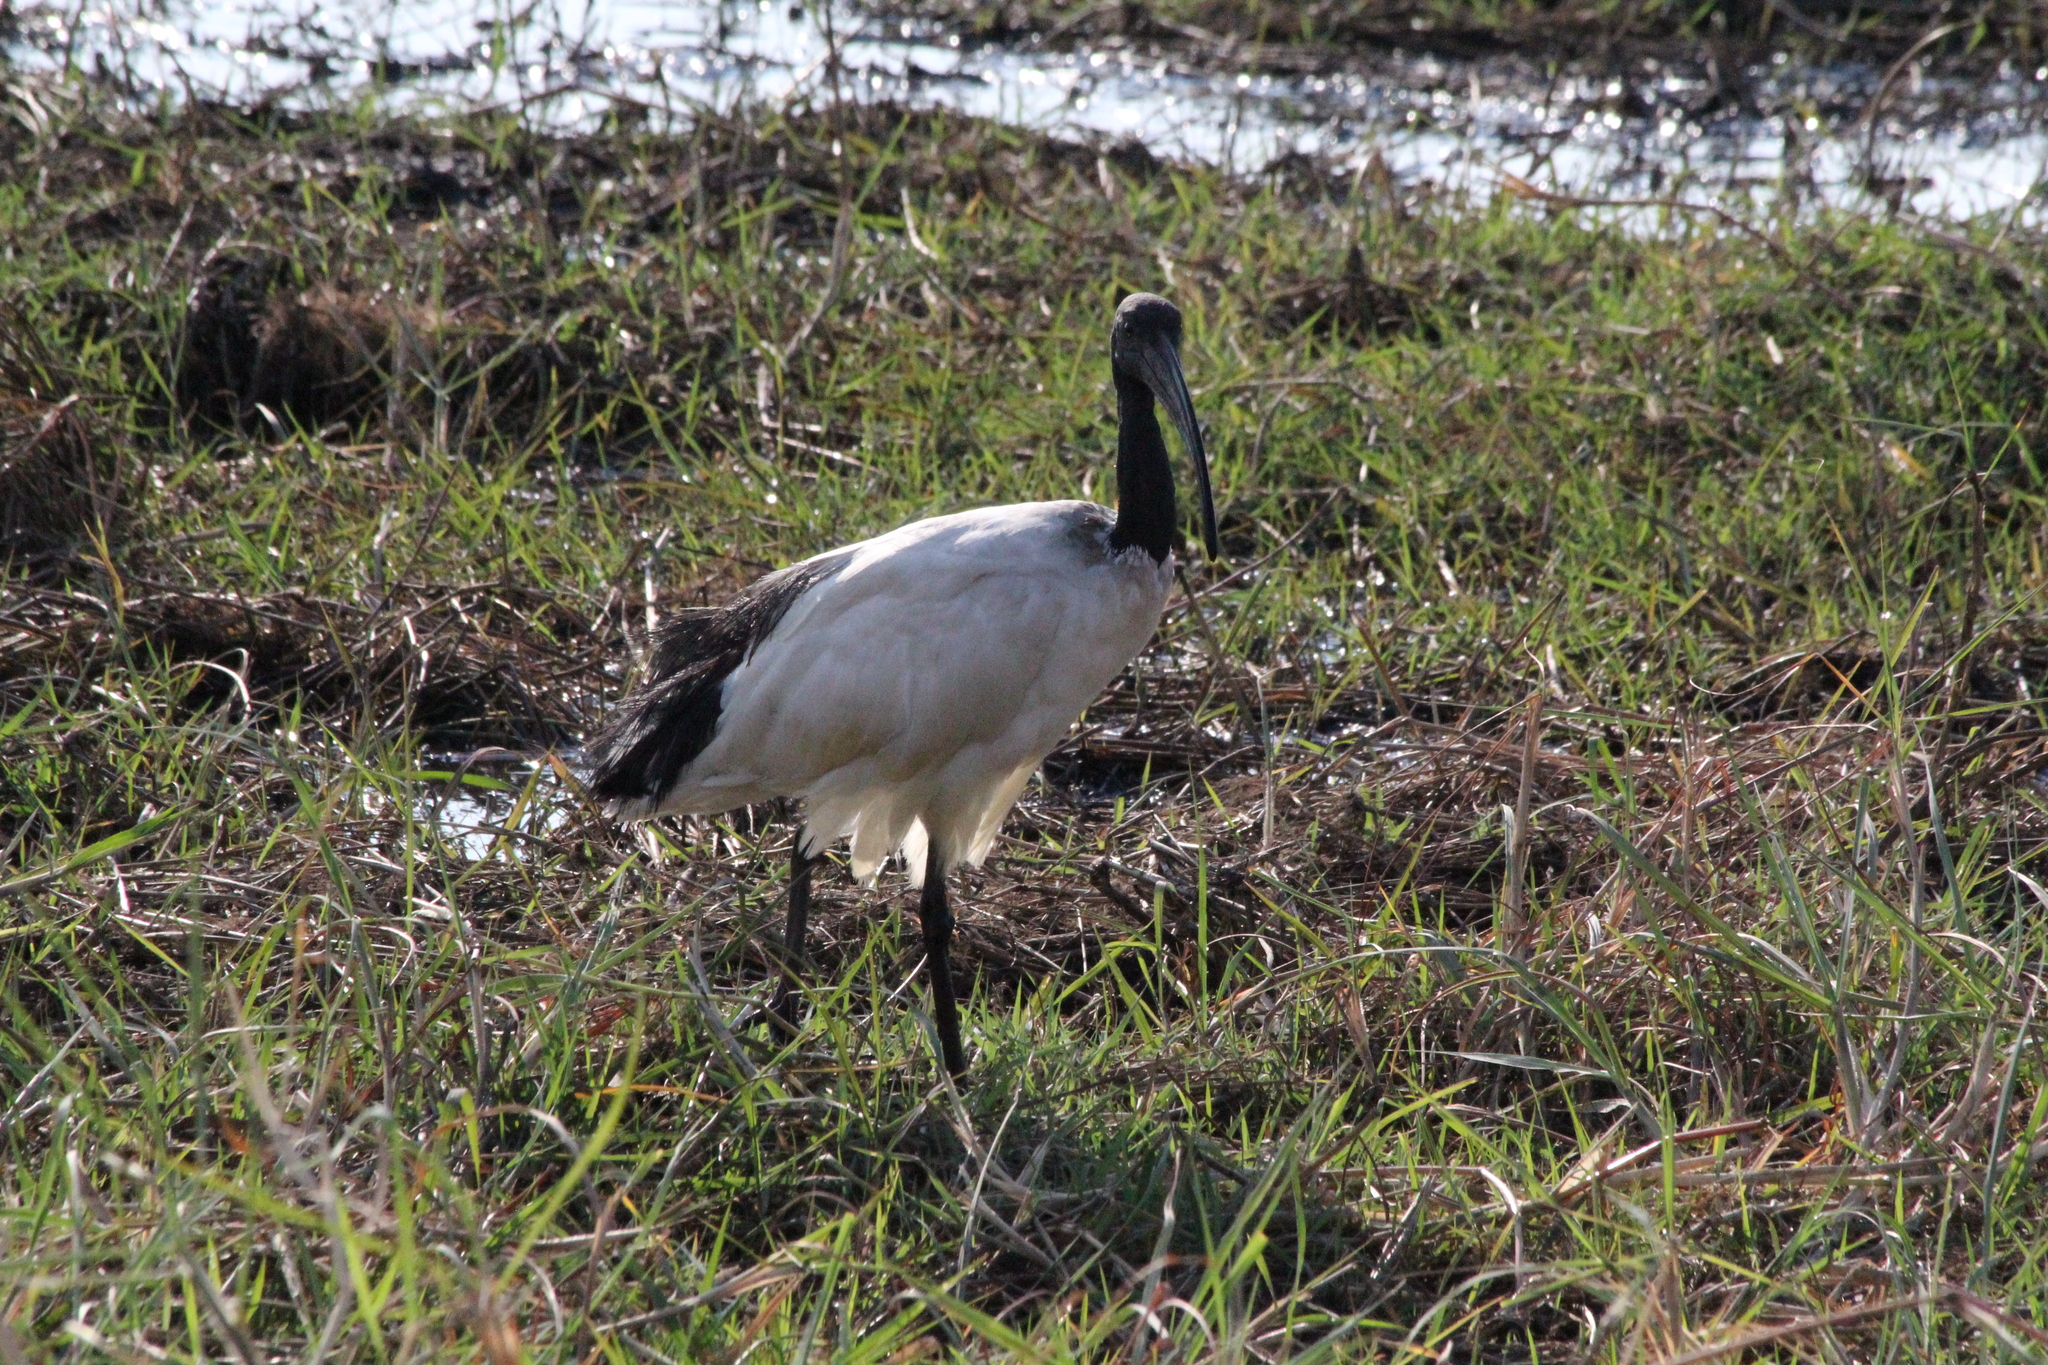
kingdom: Animalia
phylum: Chordata
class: Aves
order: Pelecaniformes
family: Threskiornithidae
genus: Threskiornis
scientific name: Threskiornis aethiopicus
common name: Sacred ibis
